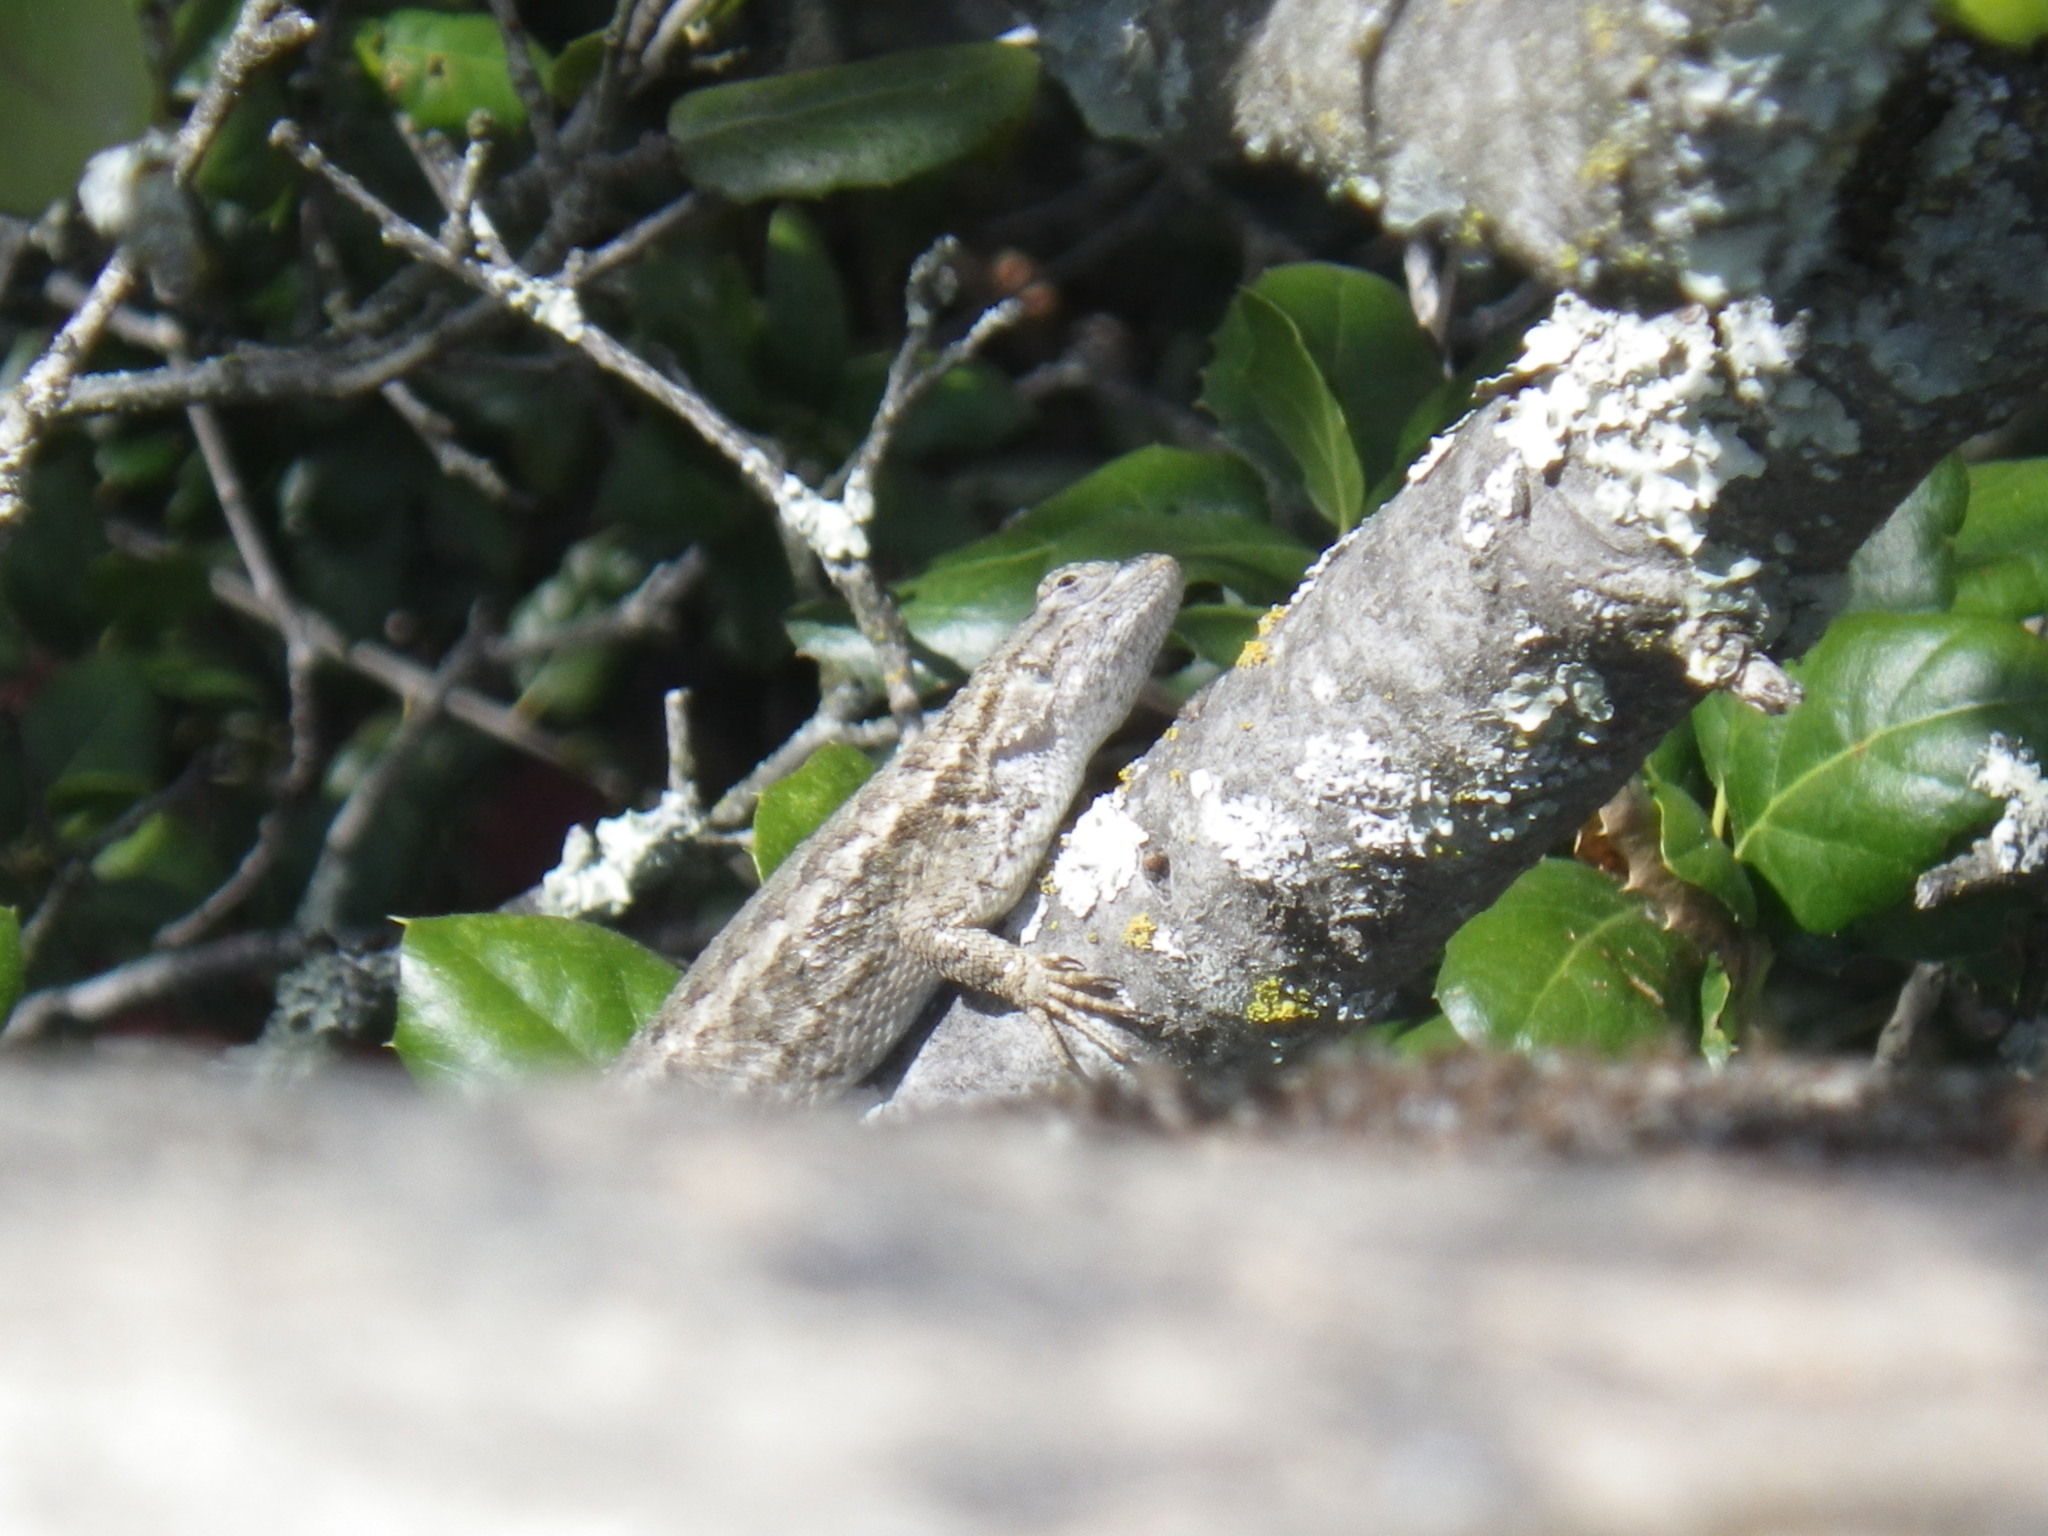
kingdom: Animalia
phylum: Chordata
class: Squamata
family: Phrynosomatidae
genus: Sceloporus
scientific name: Sceloporus occidentalis
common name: Western fence lizard
